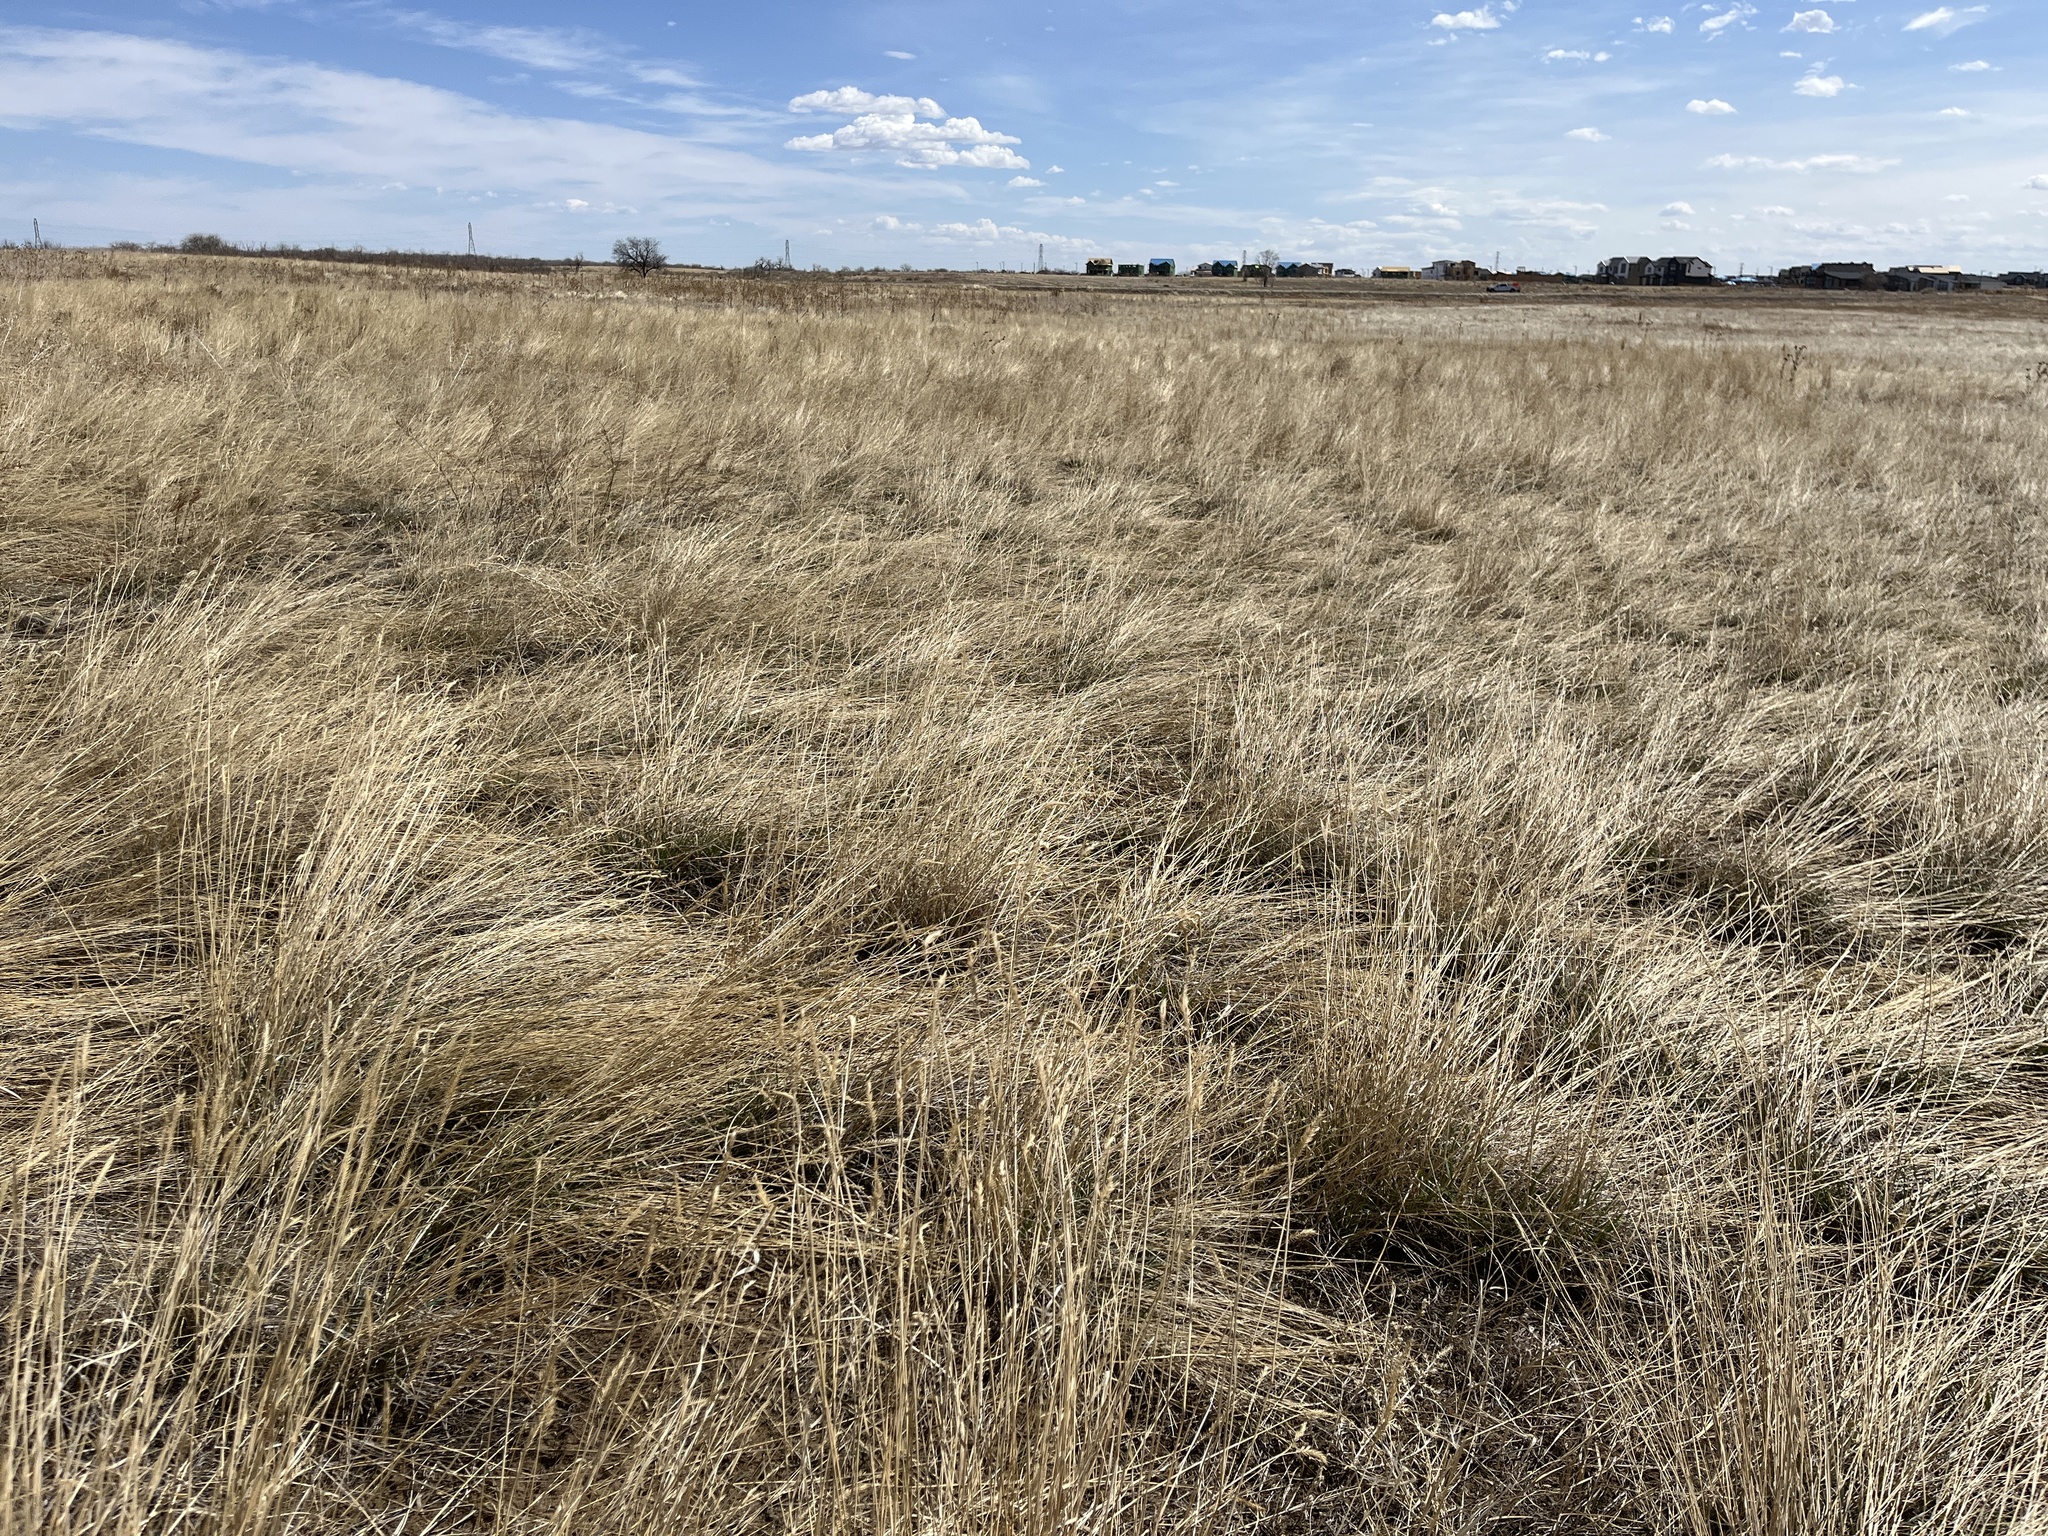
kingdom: Plantae
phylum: Tracheophyta
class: Liliopsida
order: Poales
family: Poaceae
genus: Agropyron
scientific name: Agropyron cristatum
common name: Crested wheatgrass
